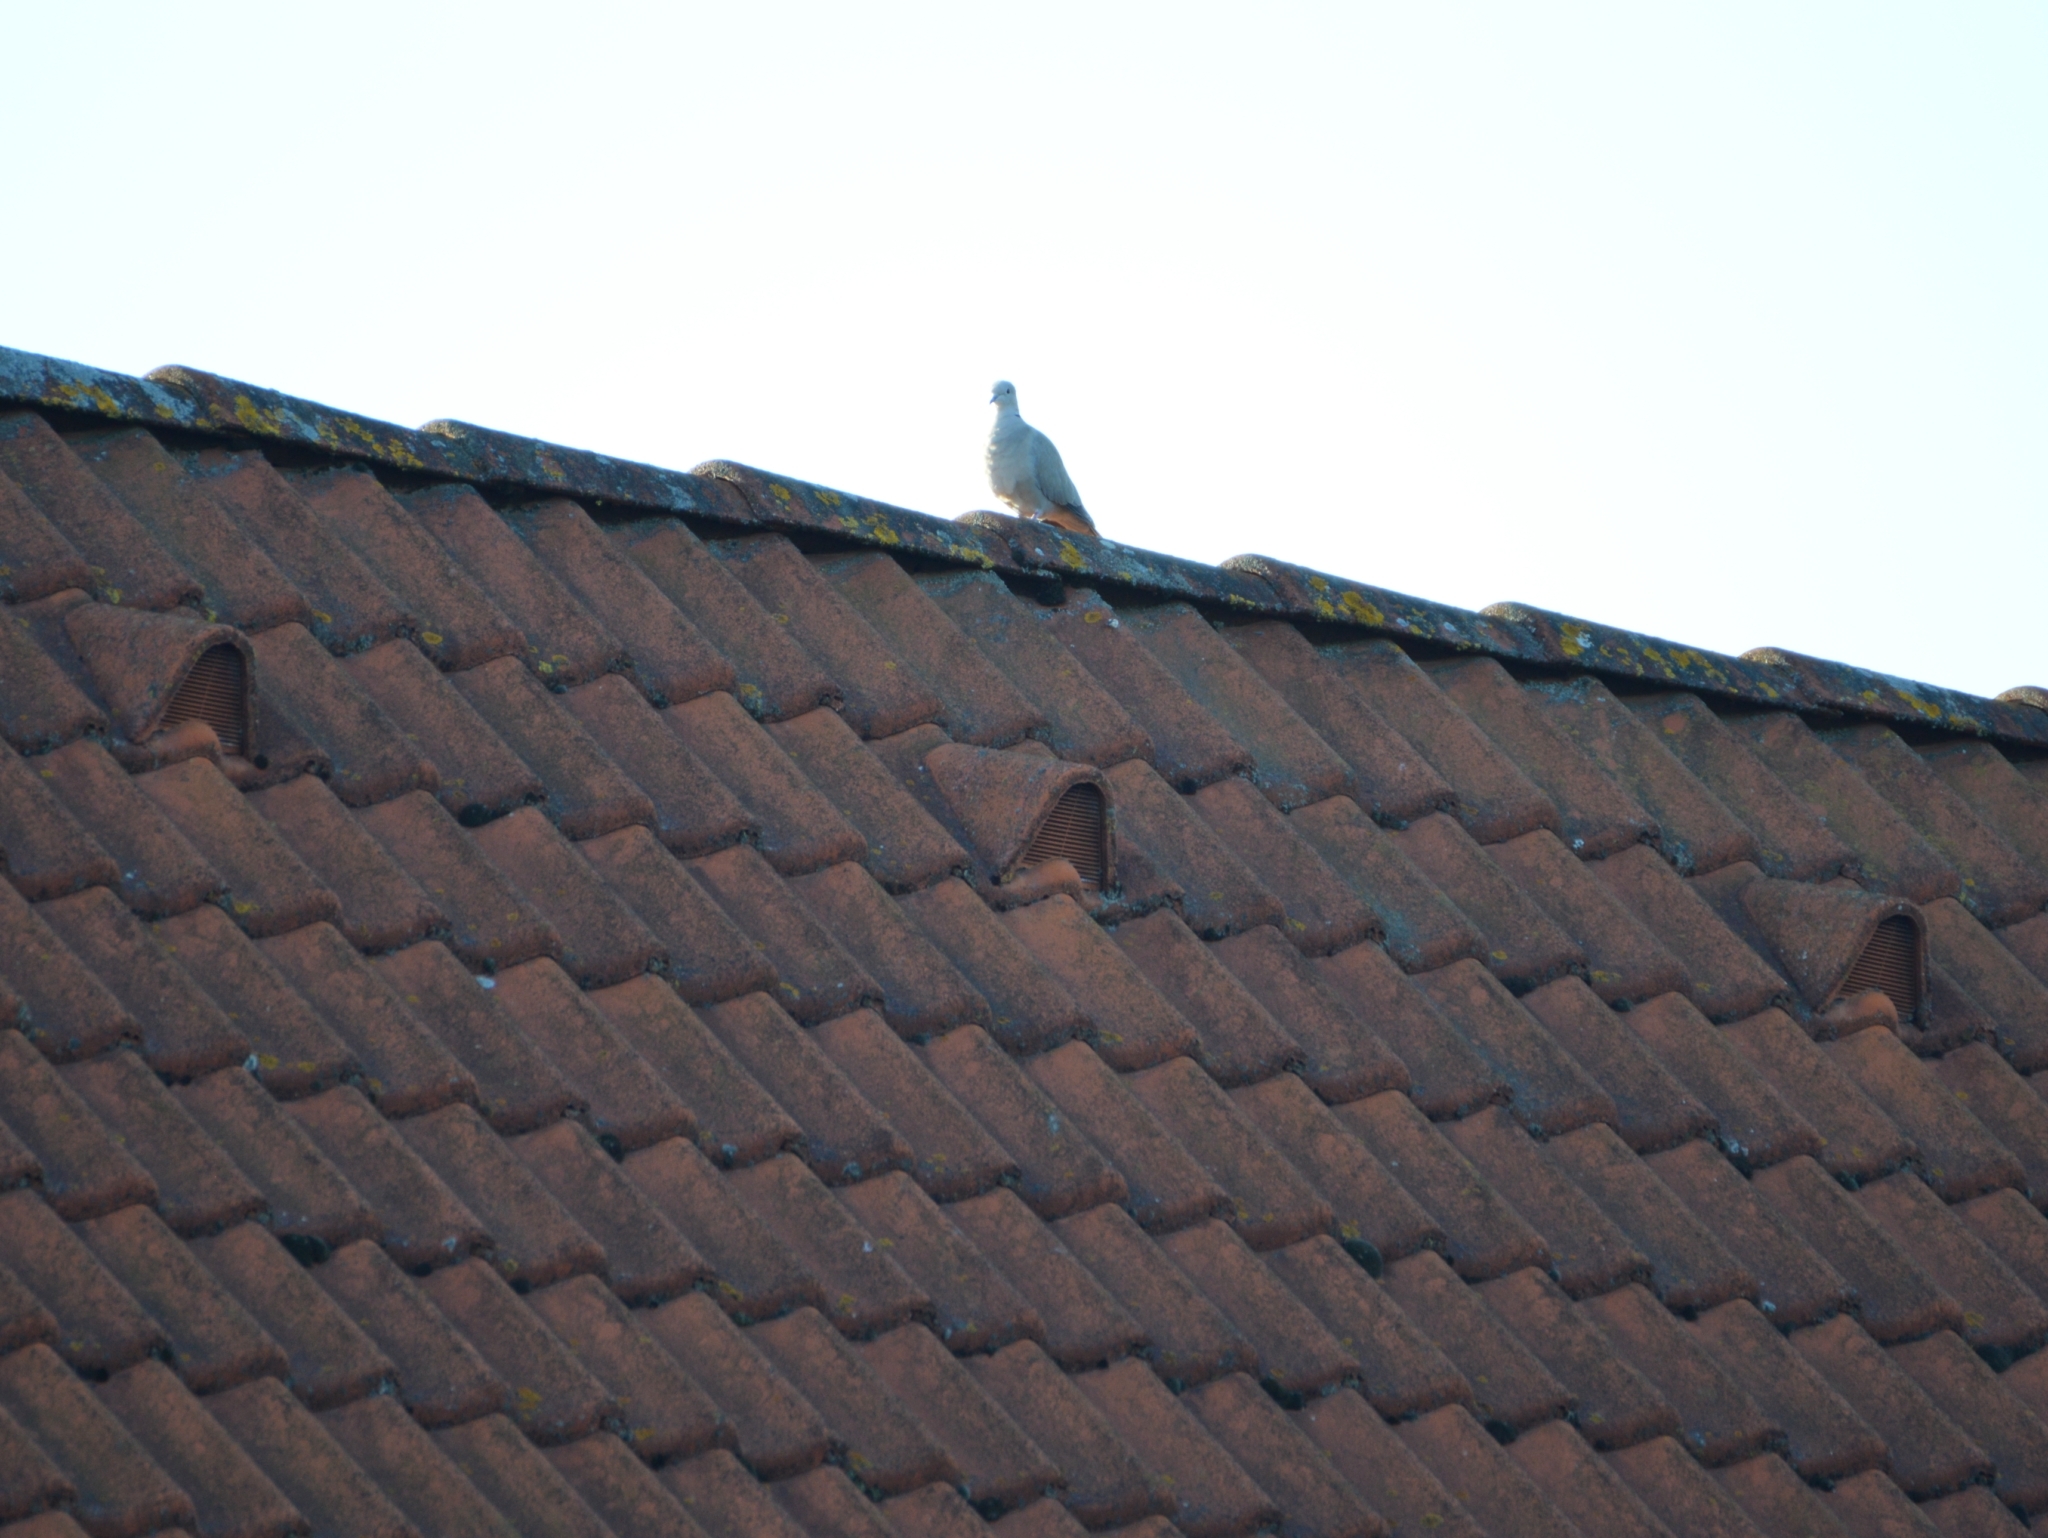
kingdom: Animalia
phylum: Chordata
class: Aves
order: Columbiformes
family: Columbidae
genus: Streptopelia
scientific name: Streptopelia decaocto
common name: Eurasian collared dove
